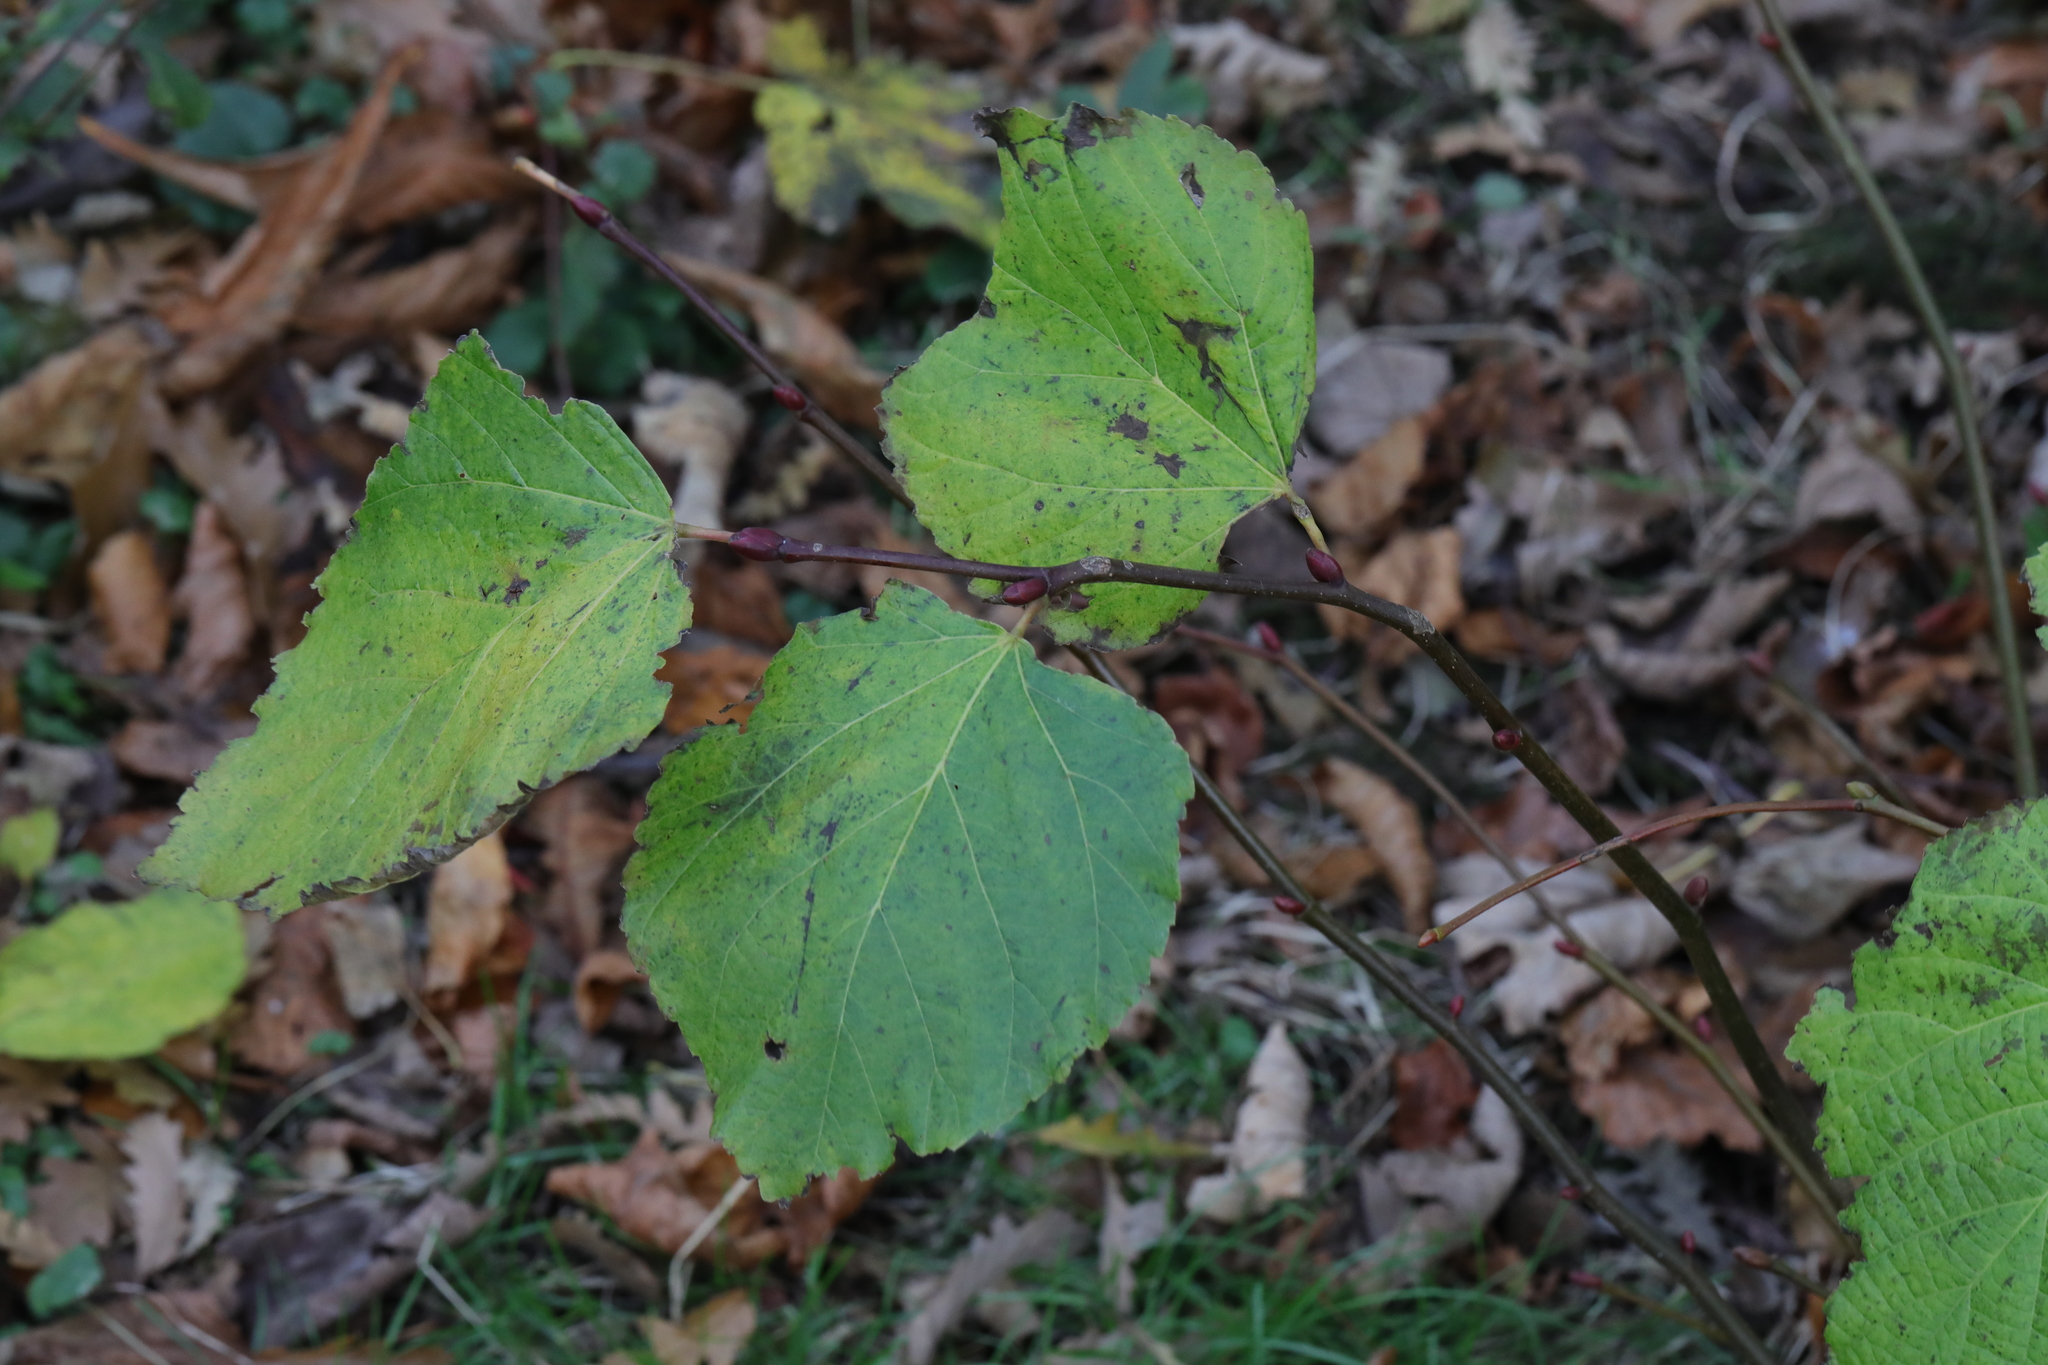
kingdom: Plantae
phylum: Tracheophyta
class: Magnoliopsida
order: Malvales
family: Malvaceae
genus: Tilia
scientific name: Tilia europaea
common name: European linden
